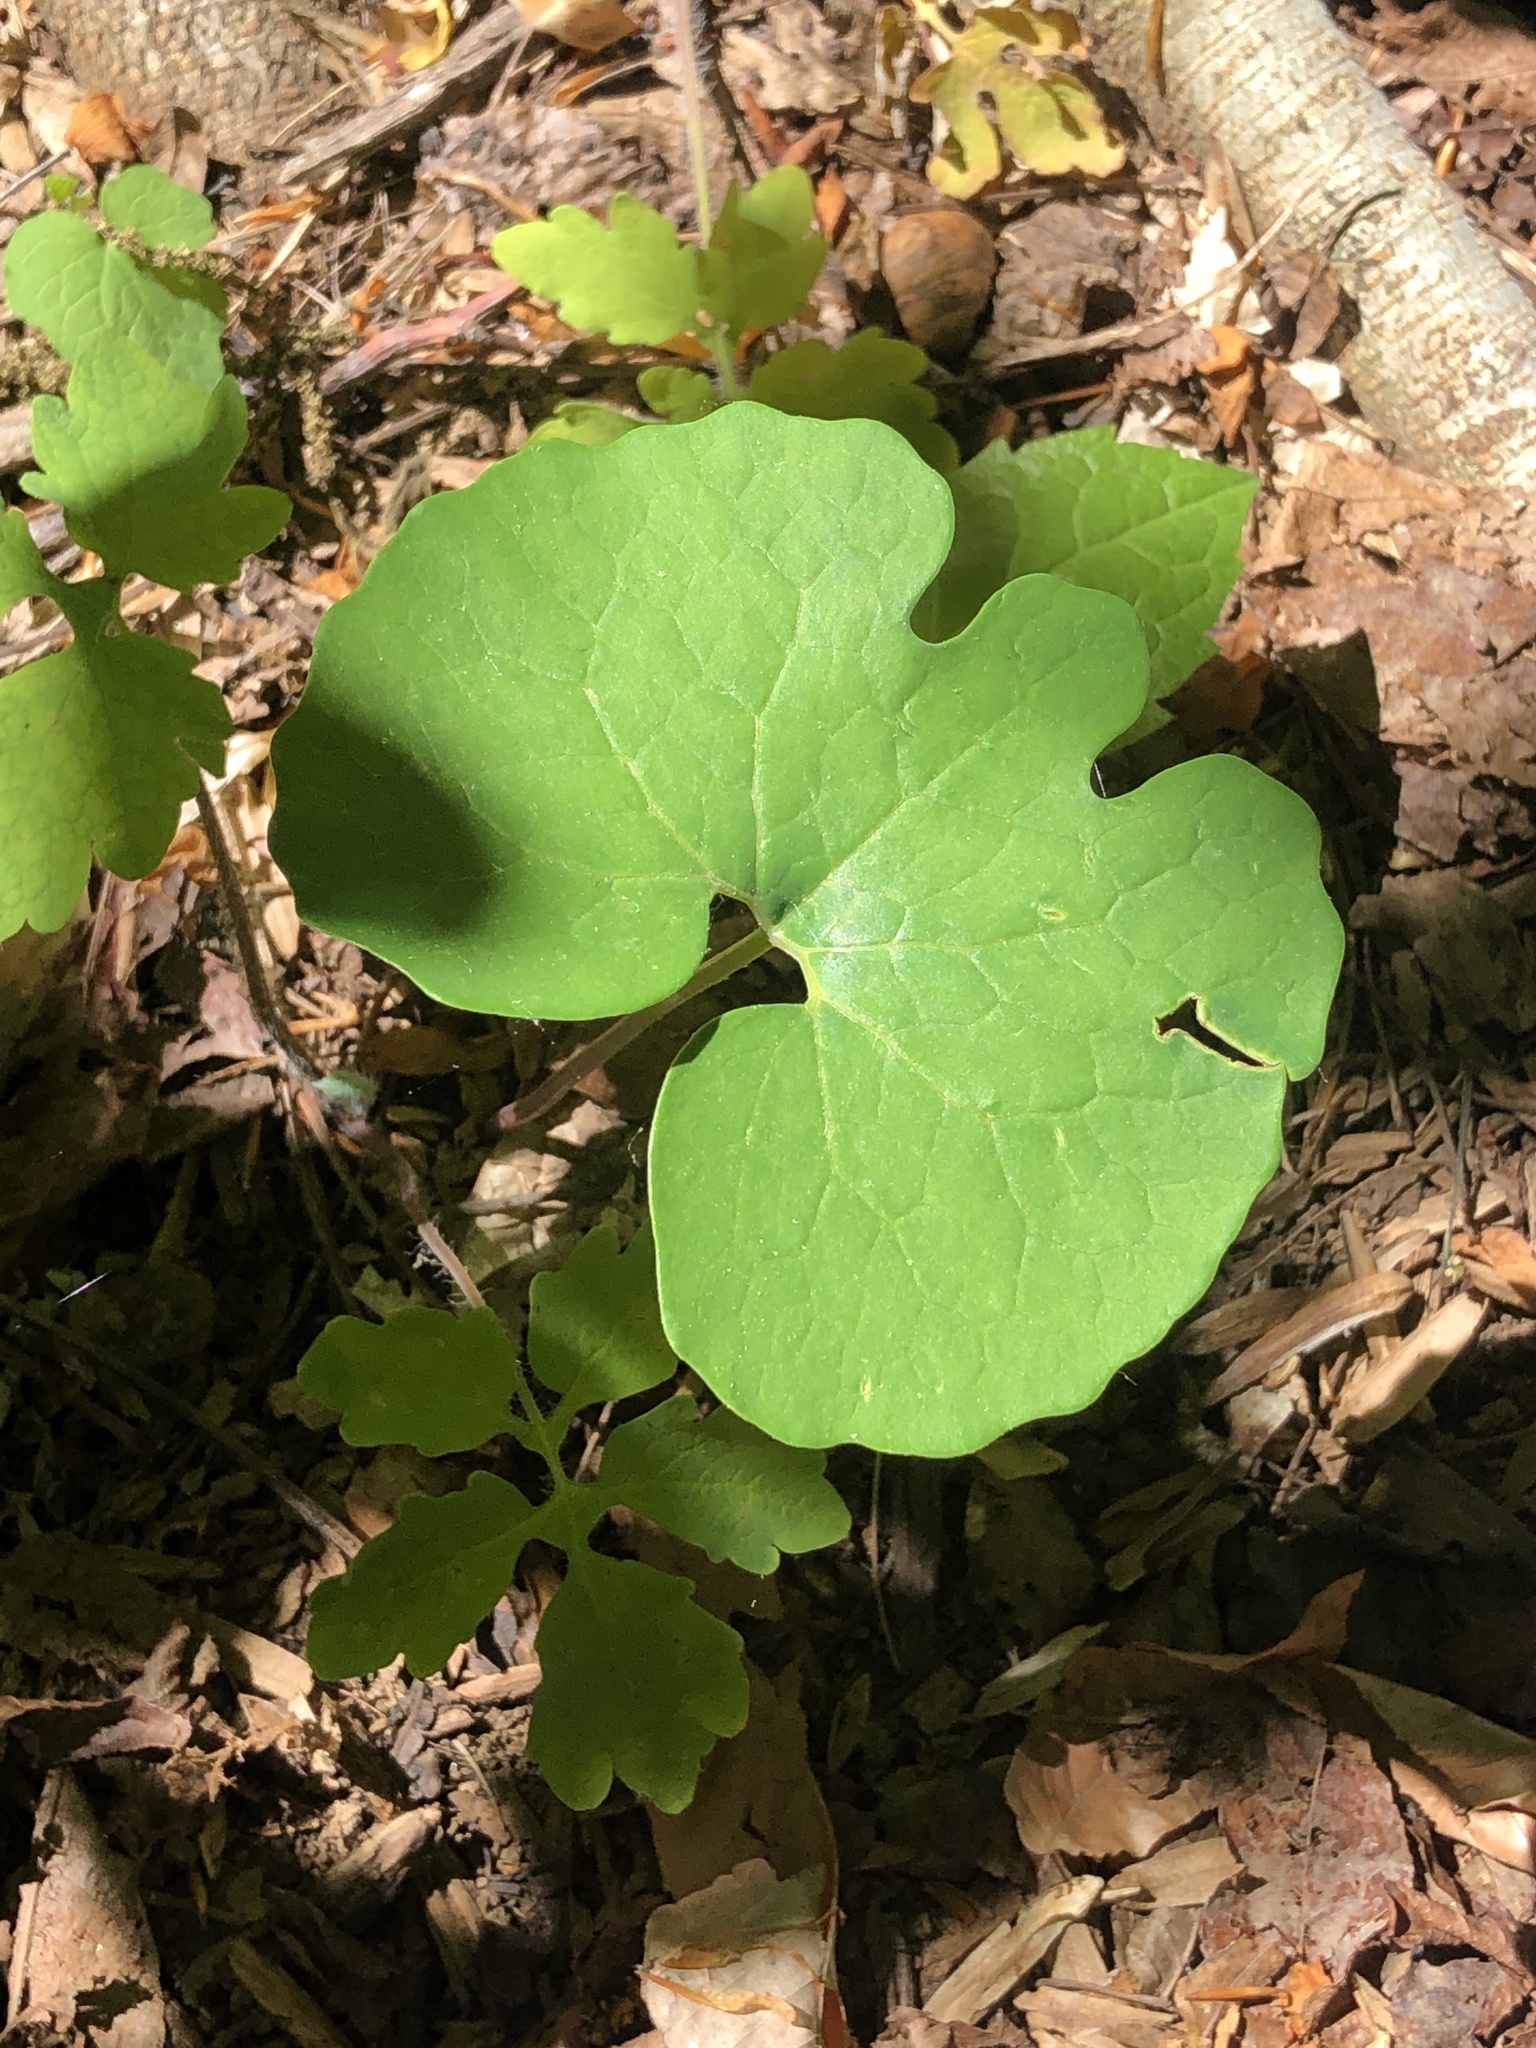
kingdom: Plantae
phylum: Tracheophyta
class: Magnoliopsida
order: Ranunculales
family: Papaveraceae
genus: Sanguinaria
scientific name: Sanguinaria canadensis
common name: Bloodroot
